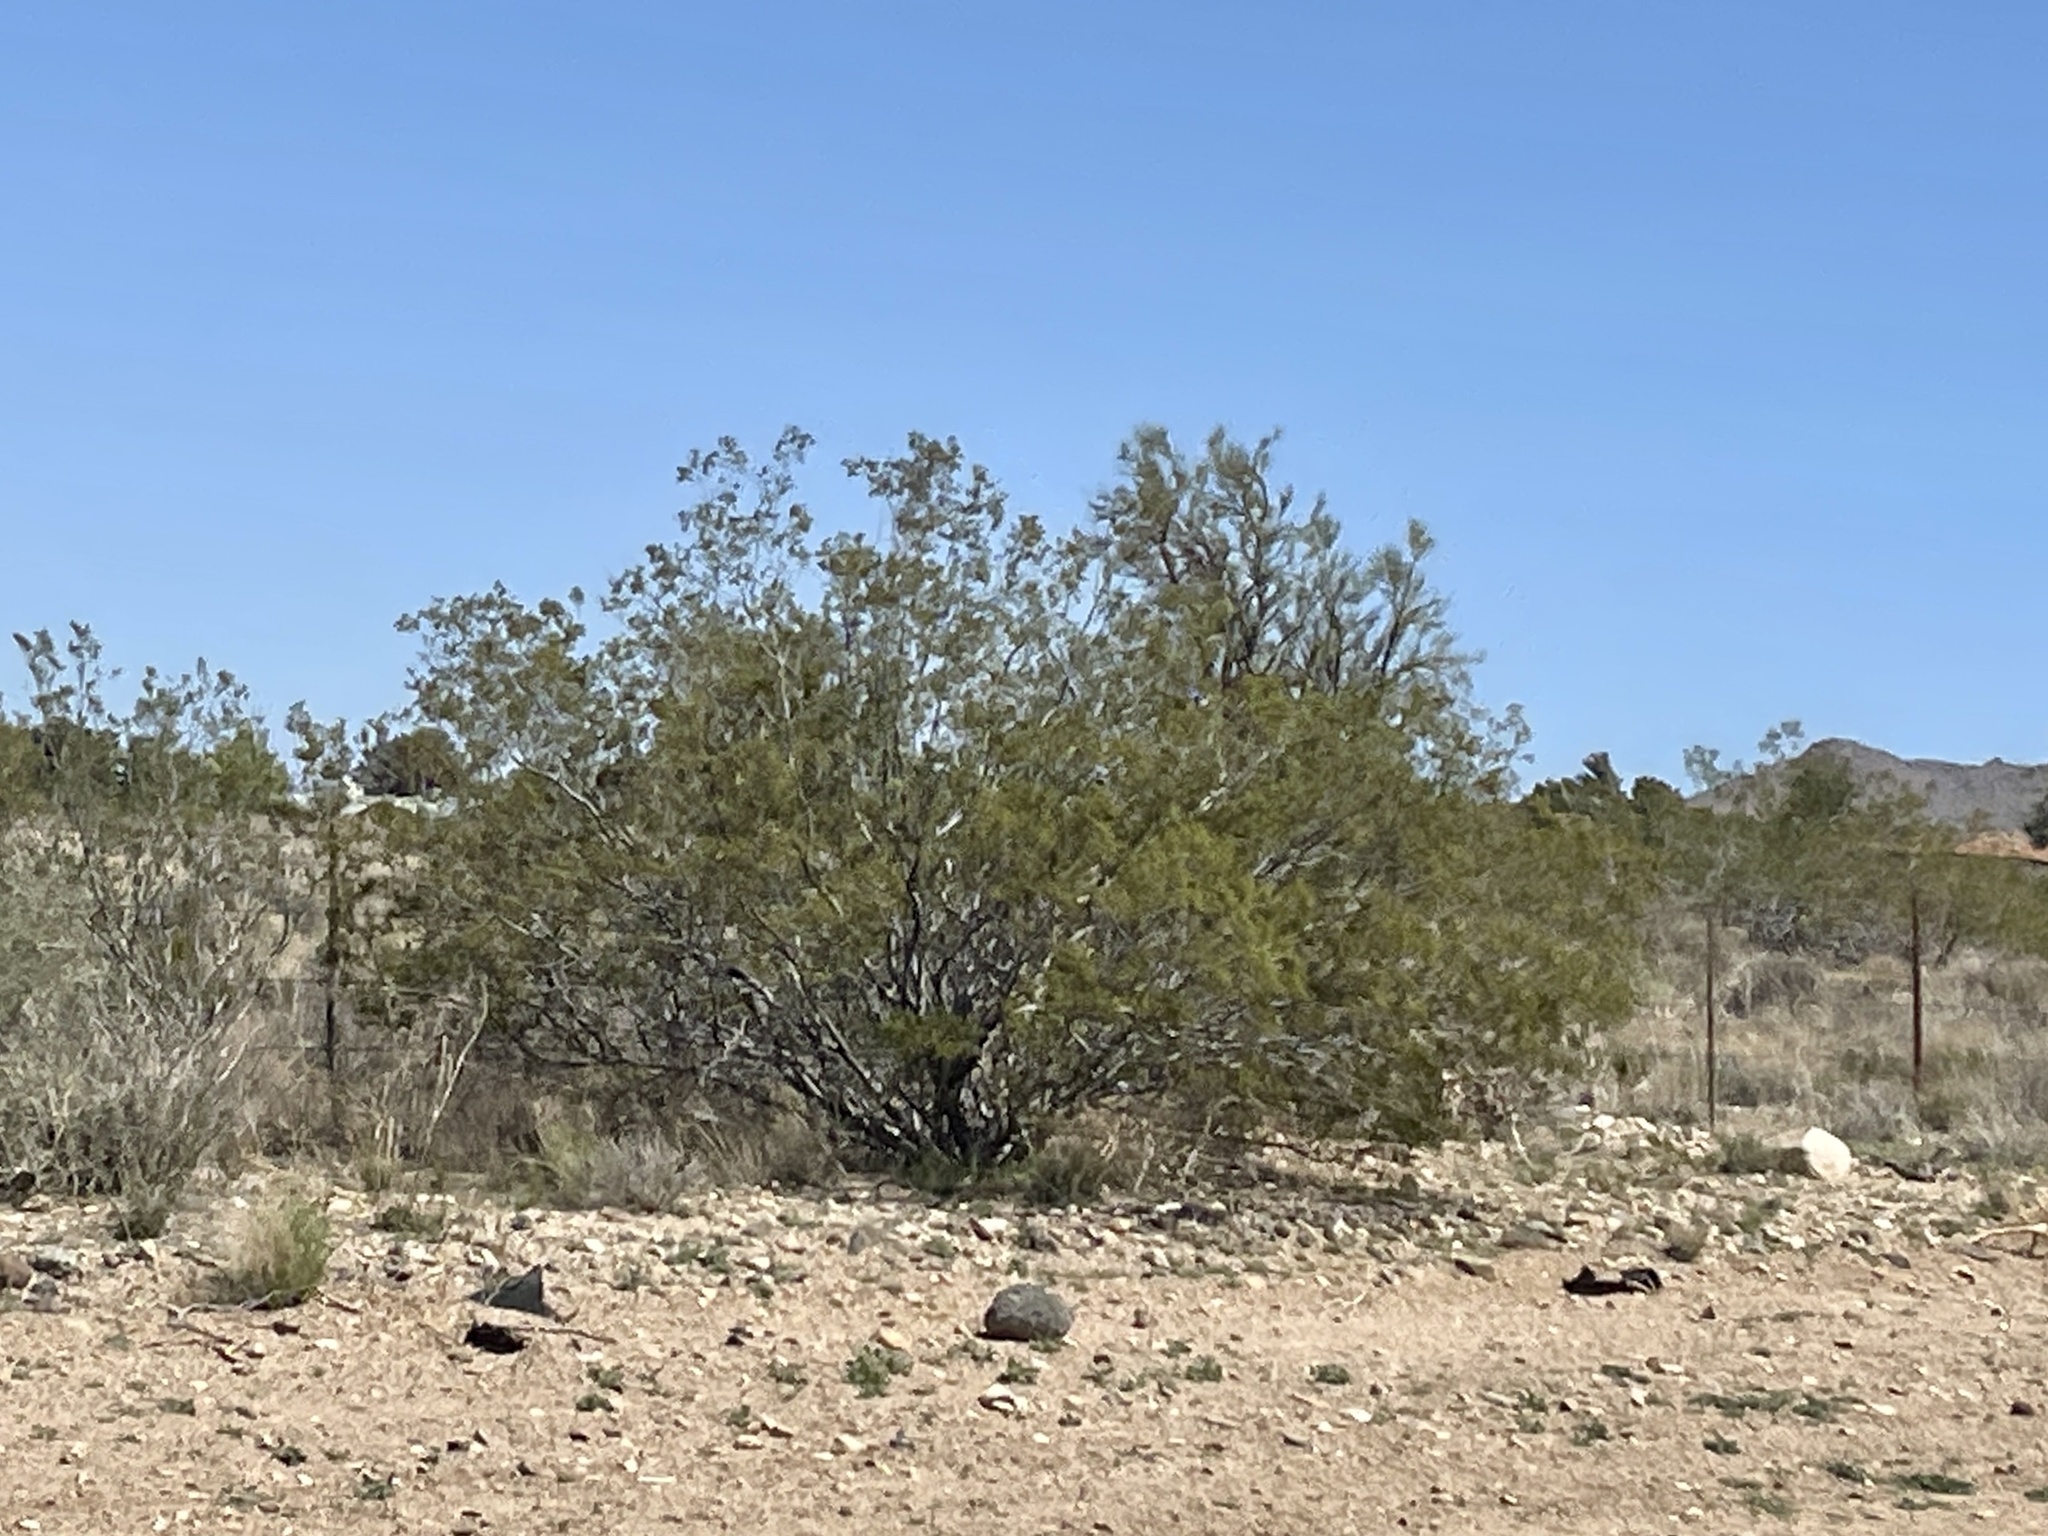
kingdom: Plantae
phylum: Tracheophyta
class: Magnoliopsida
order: Zygophyllales
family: Zygophyllaceae
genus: Larrea
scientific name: Larrea tridentata
